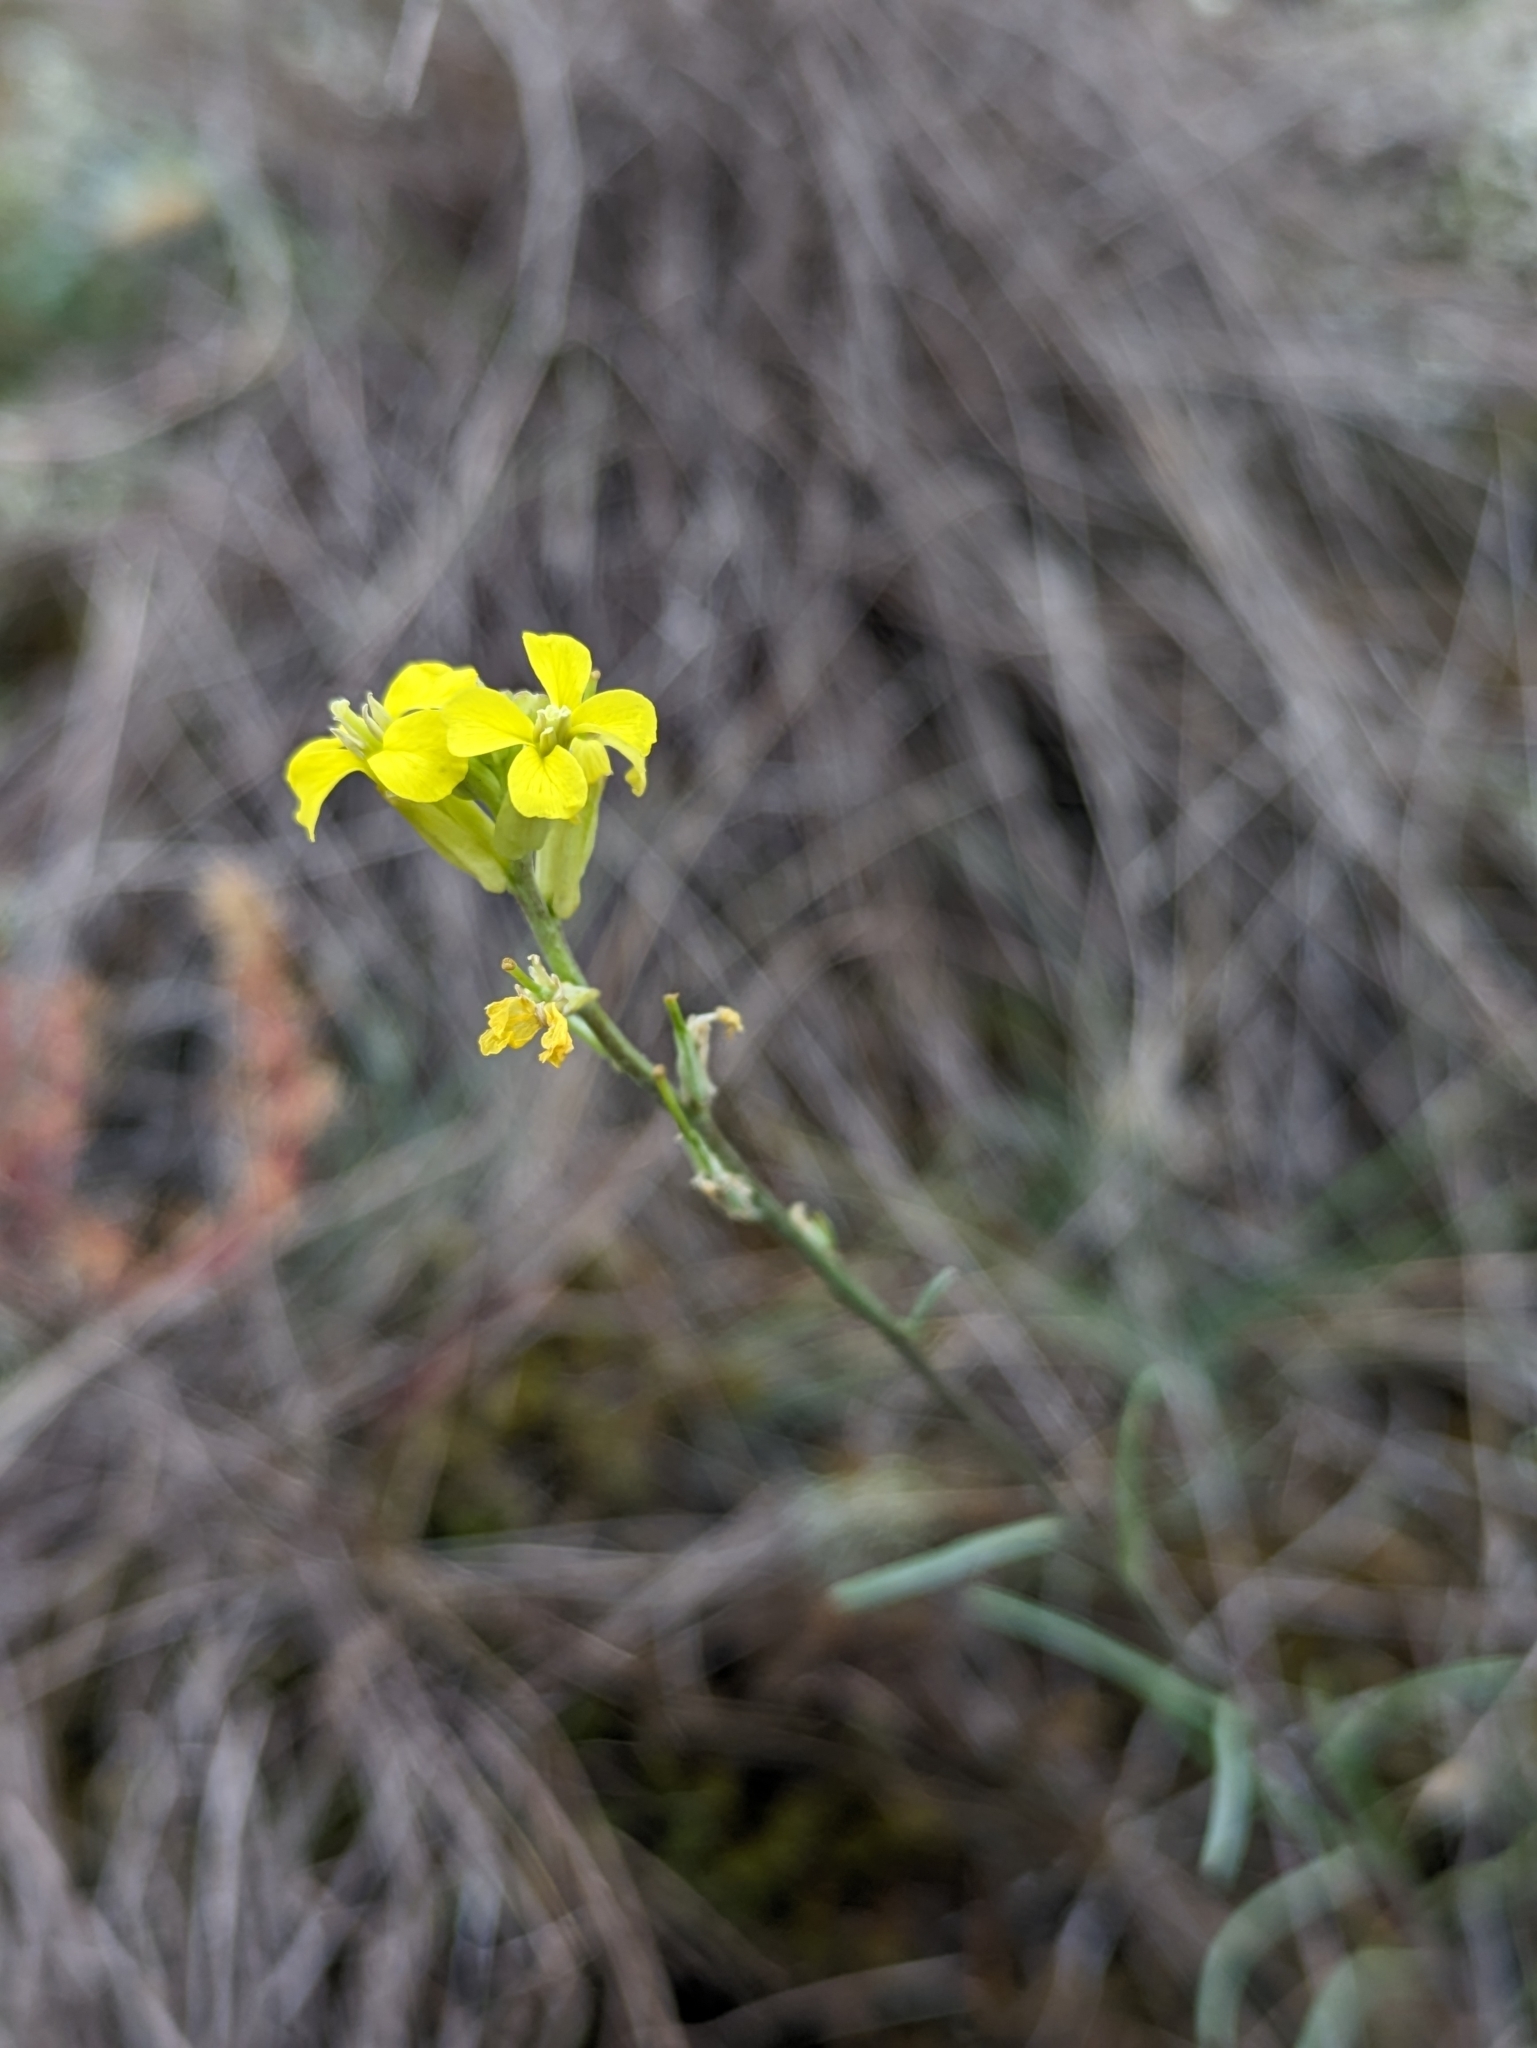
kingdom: Plantae
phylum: Tracheophyta
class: Magnoliopsida
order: Brassicales
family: Brassicaceae
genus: Erysimum
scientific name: Erysimum canum
